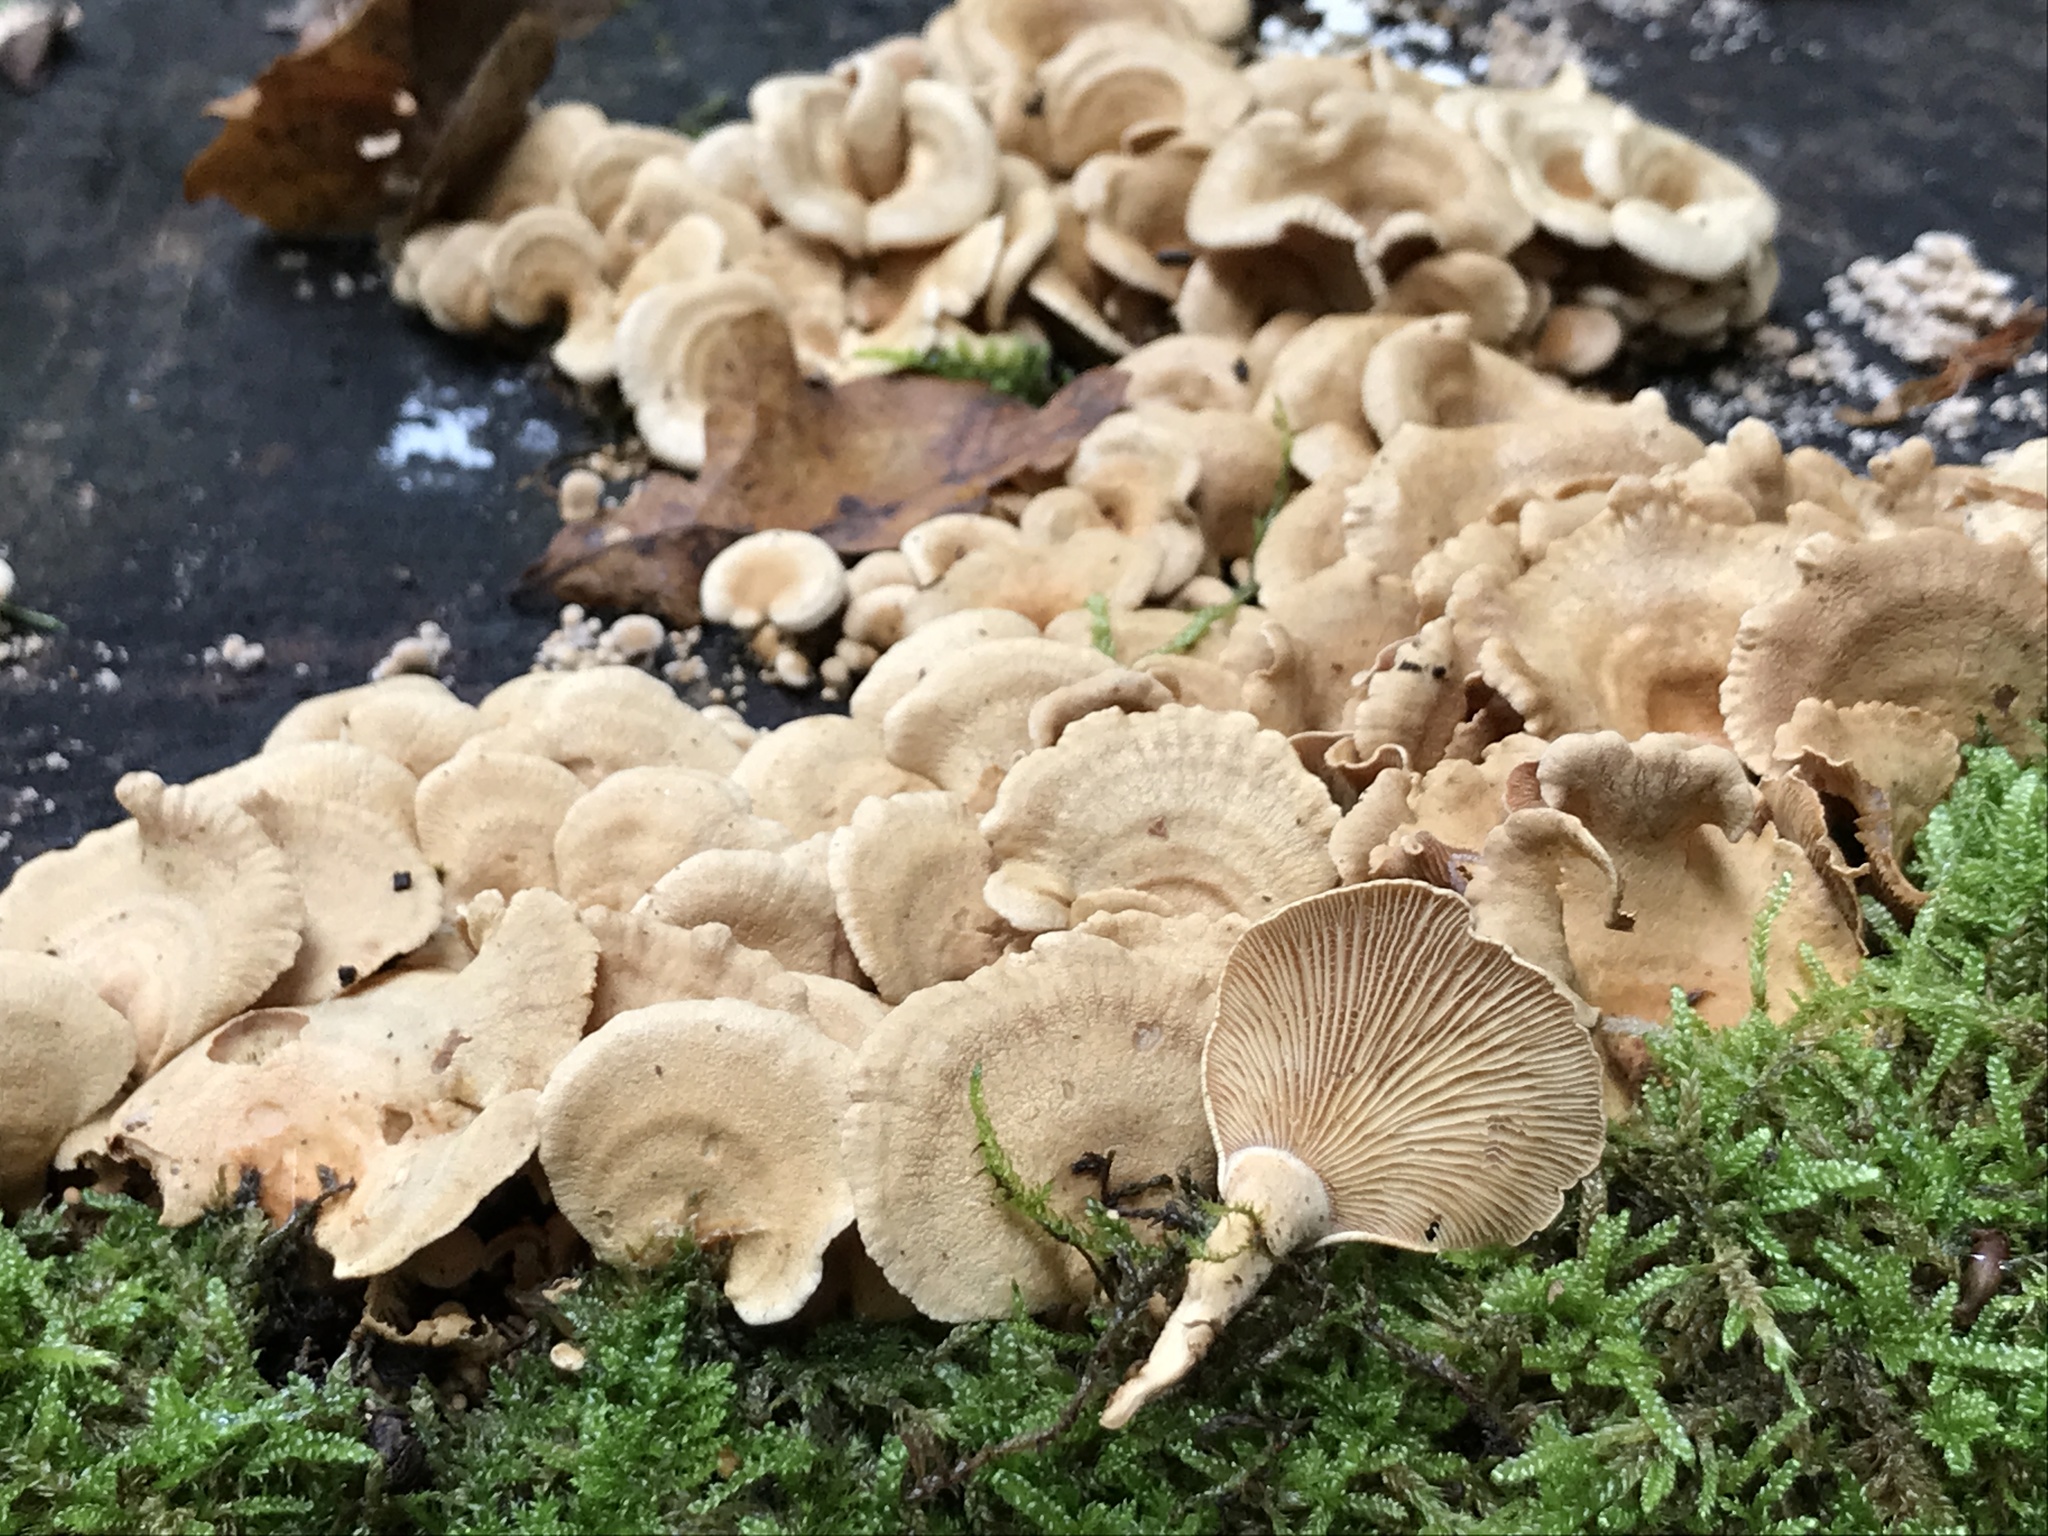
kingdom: Fungi
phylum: Basidiomycota
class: Agaricomycetes
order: Agaricales
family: Mycenaceae
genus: Panellus
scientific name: Panellus stipticus
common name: Bitter oysterling
